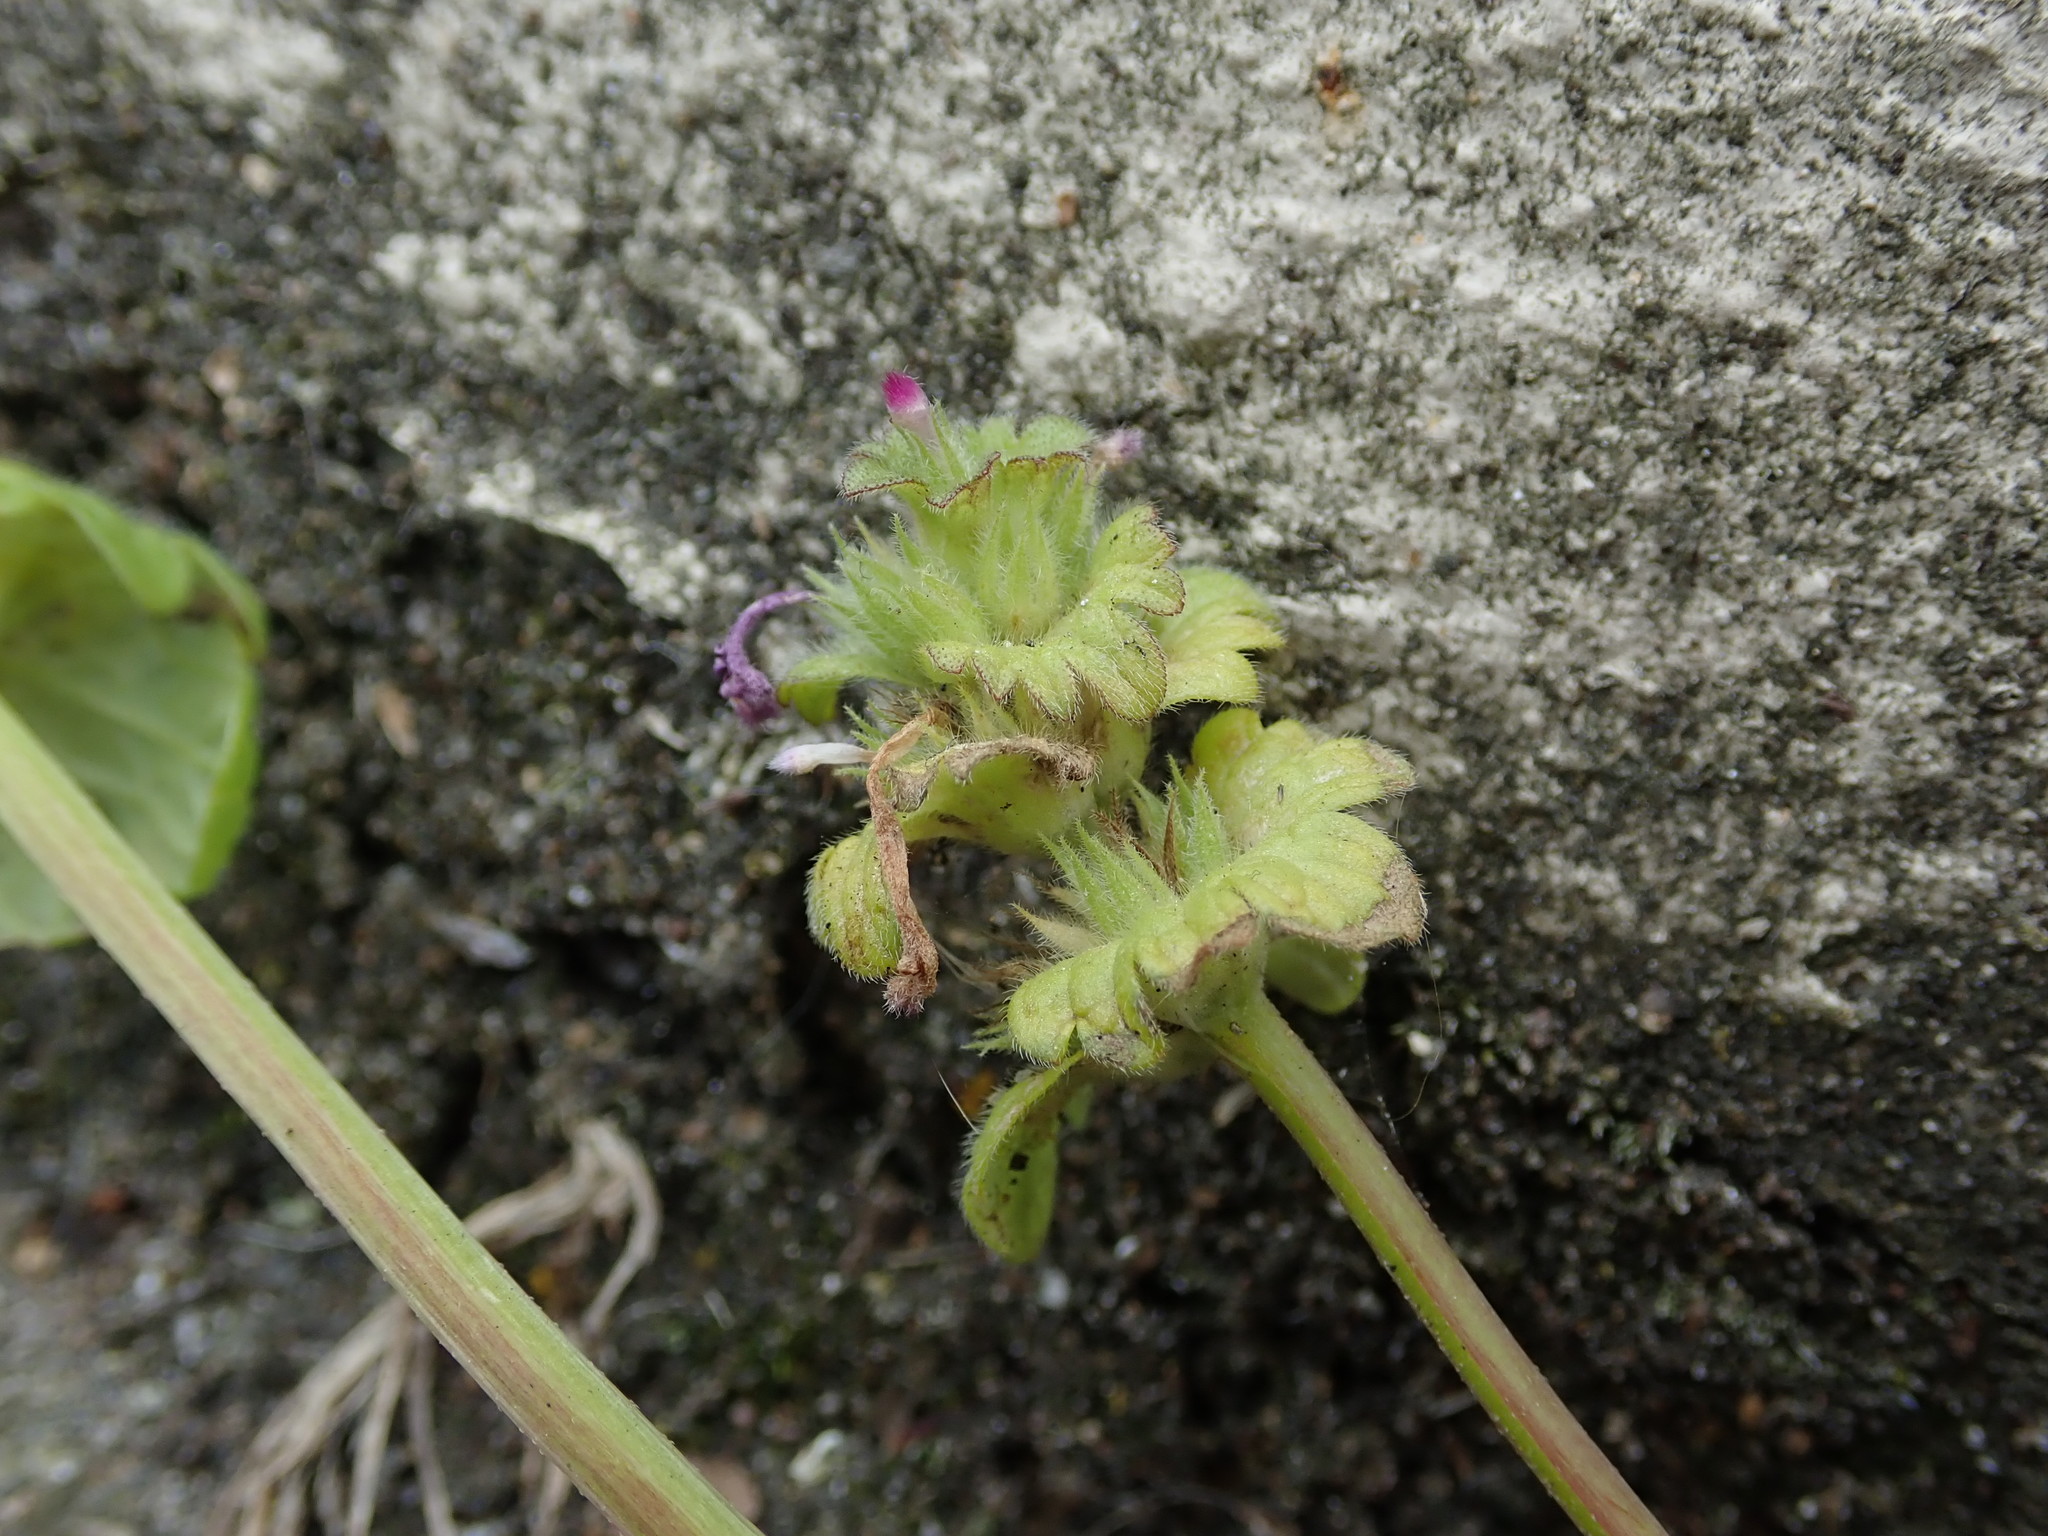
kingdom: Plantae
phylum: Tracheophyta
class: Magnoliopsida
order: Lamiales
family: Lamiaceae
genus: Lamium
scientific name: Lamium amplexicaule
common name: Henbit dead-nettle
